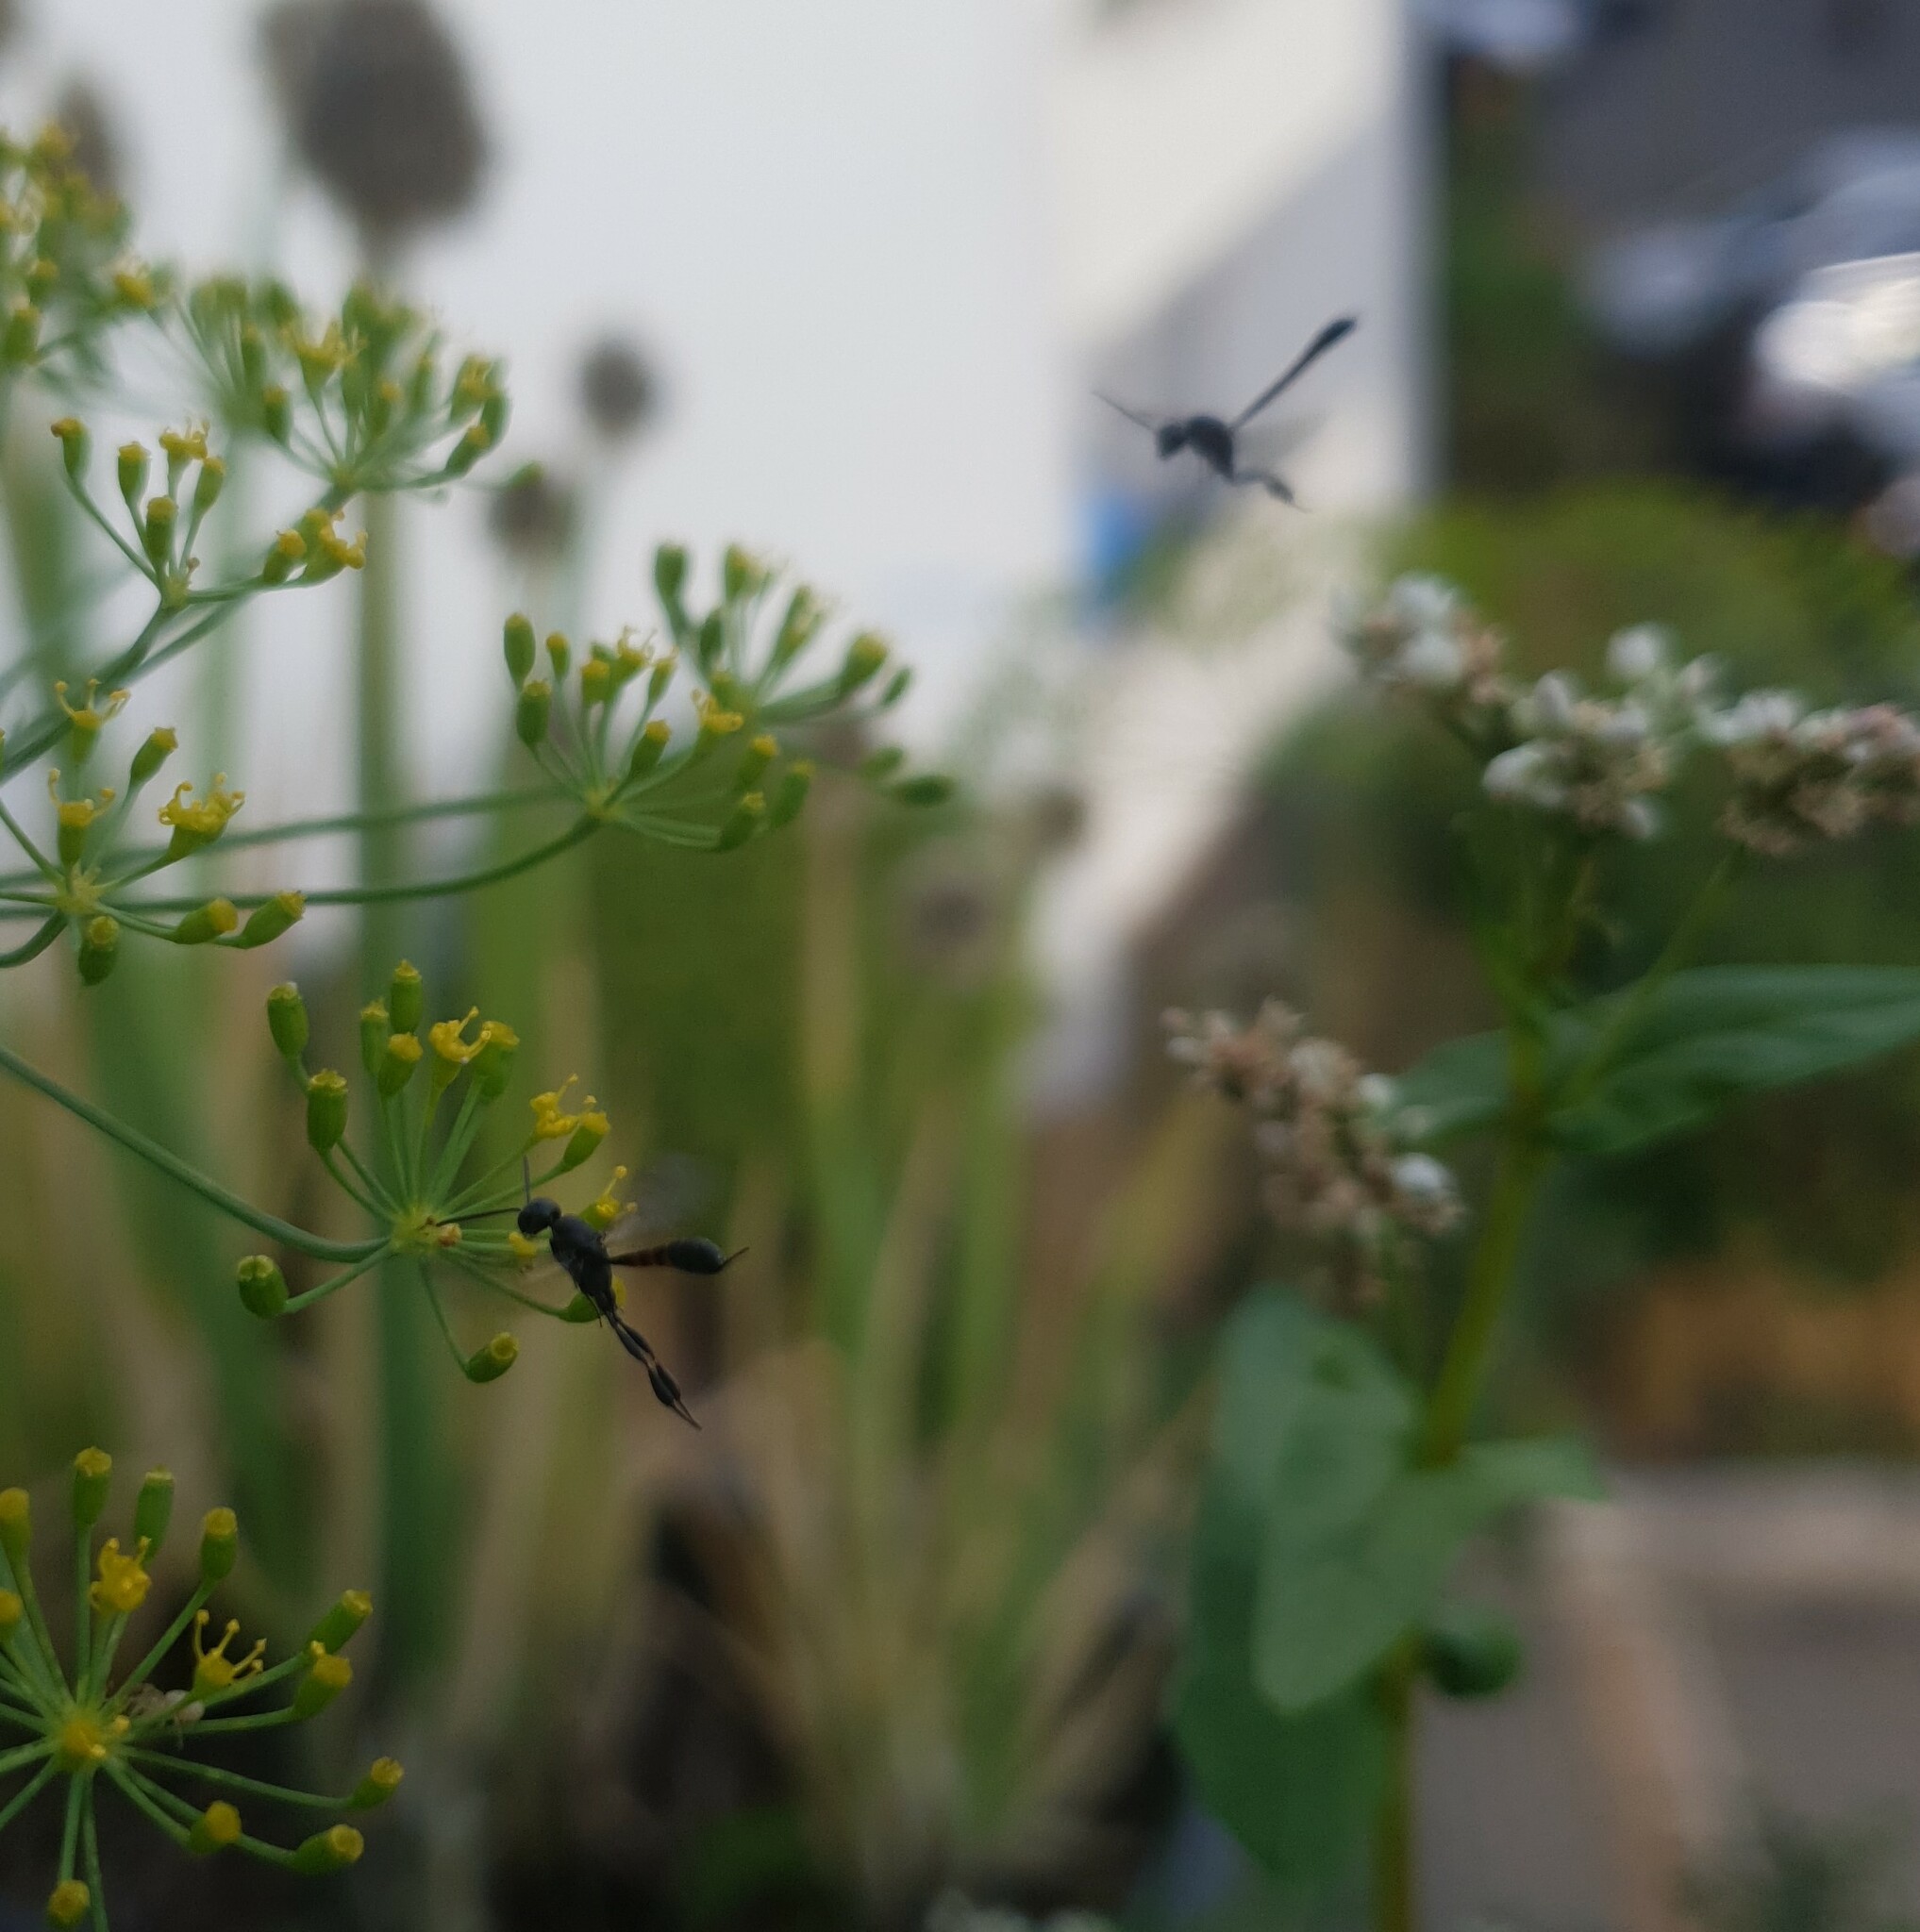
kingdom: Animalia
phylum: Arthropoda
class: Insecta
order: Hymenoptera
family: Gasteruptiidae
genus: Gasteruption
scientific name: Gasteruption
